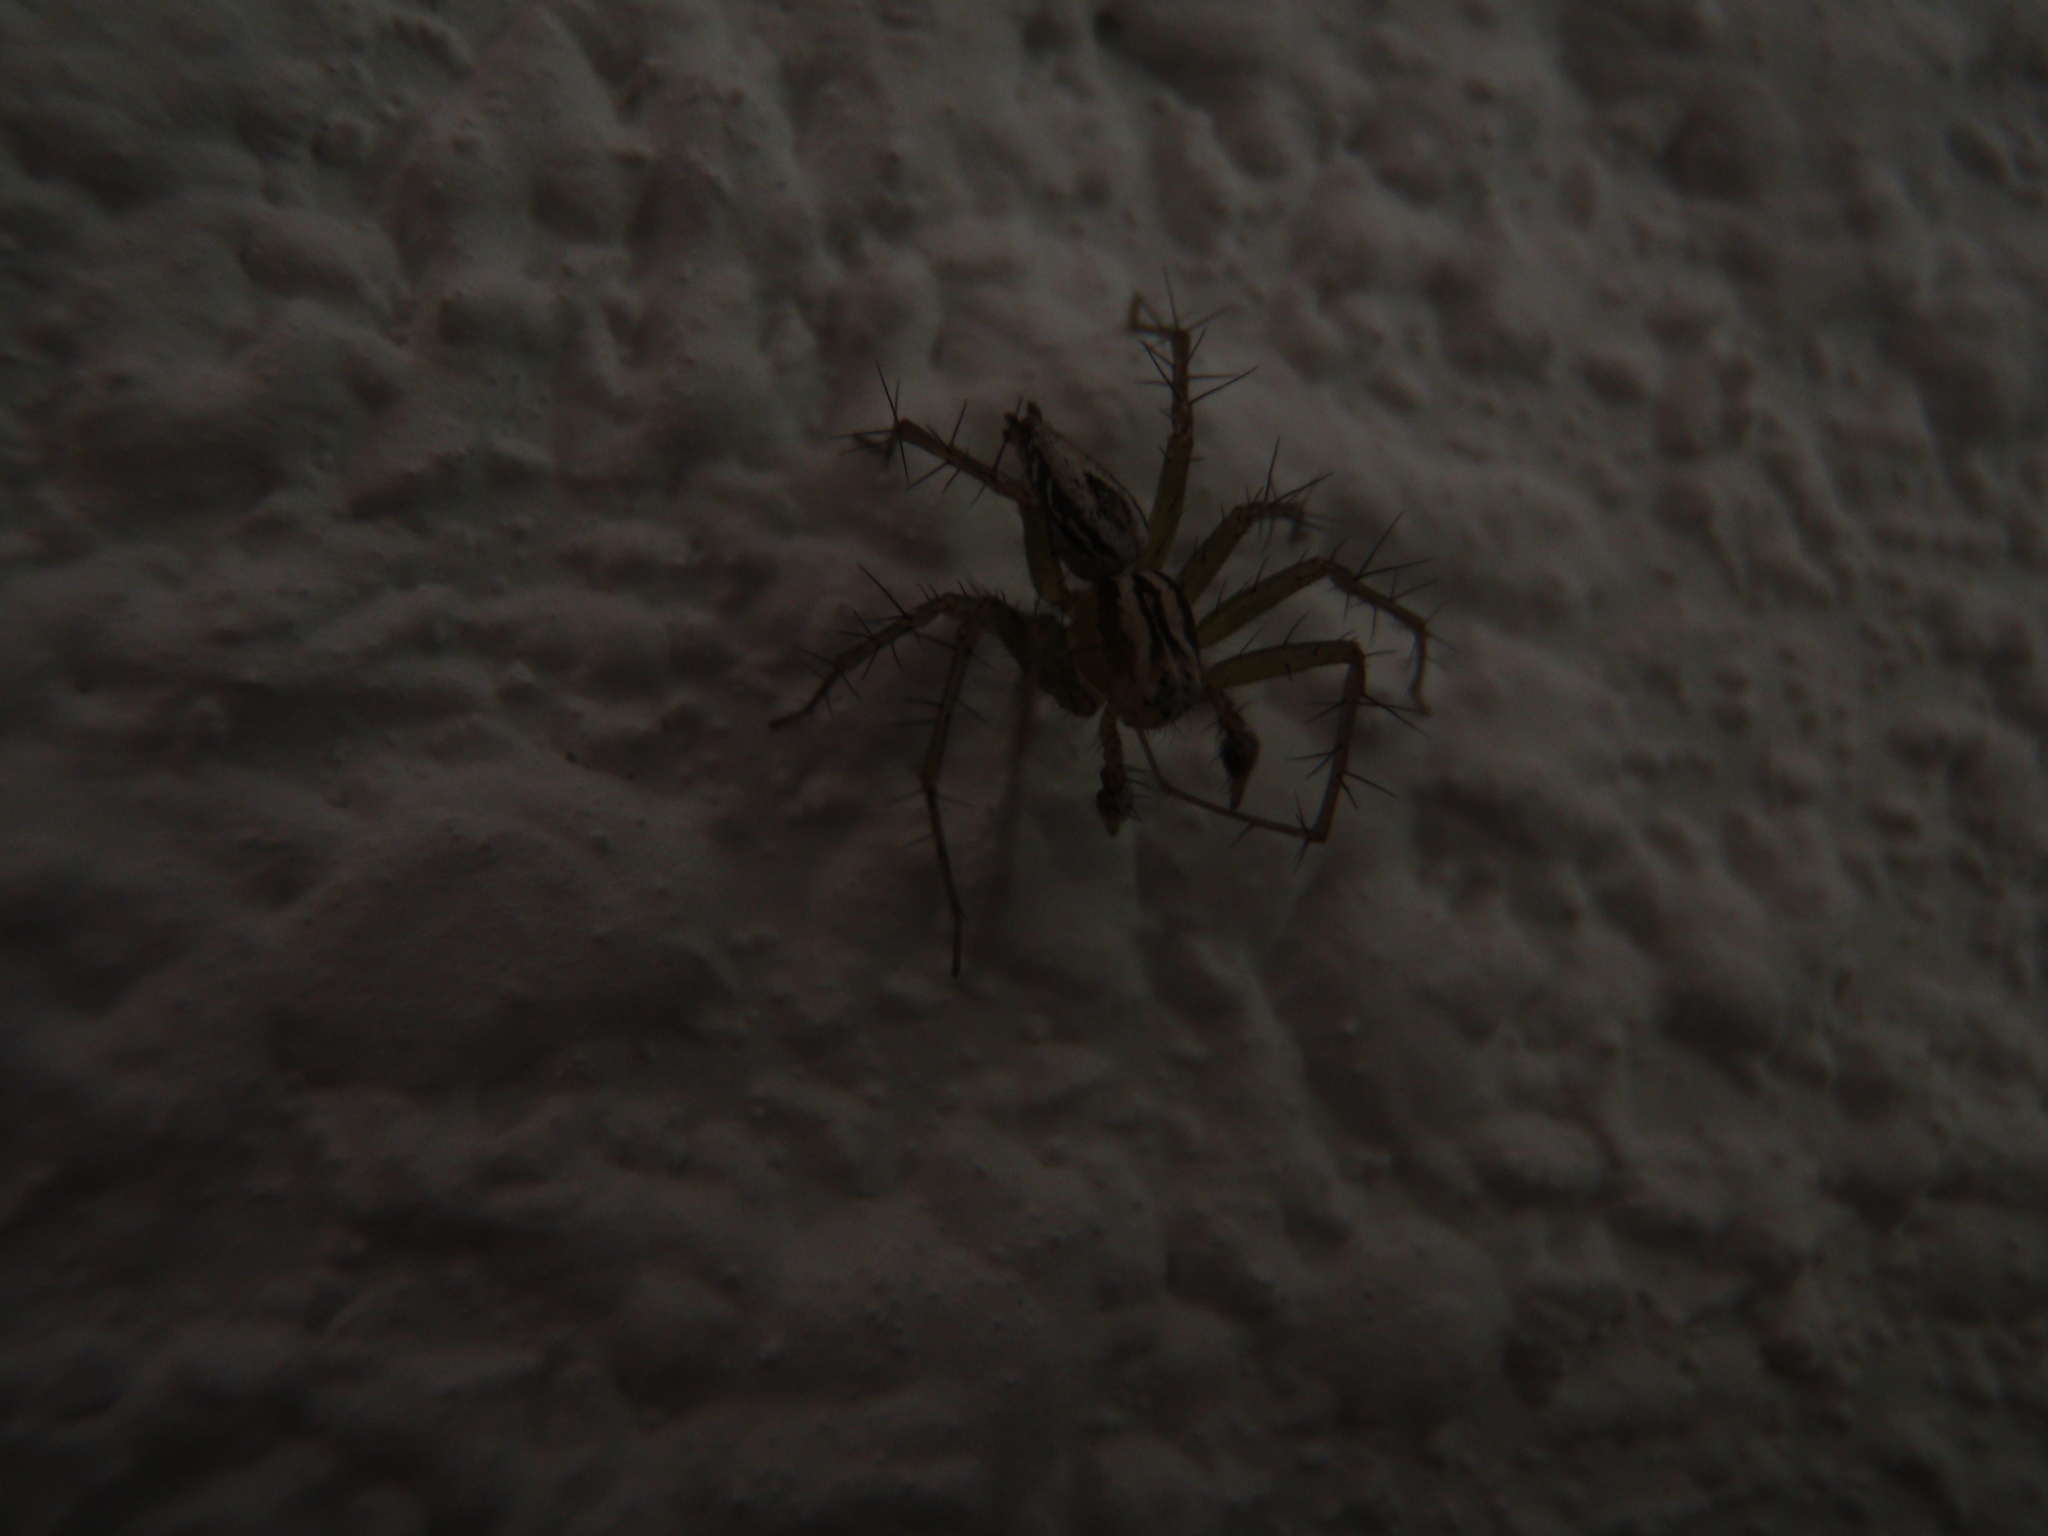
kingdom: Animalia
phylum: Arthropoda
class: Arachnida
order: Araneae
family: Oxyopidae
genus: Oxyopes
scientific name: Oxyopes lineatus
